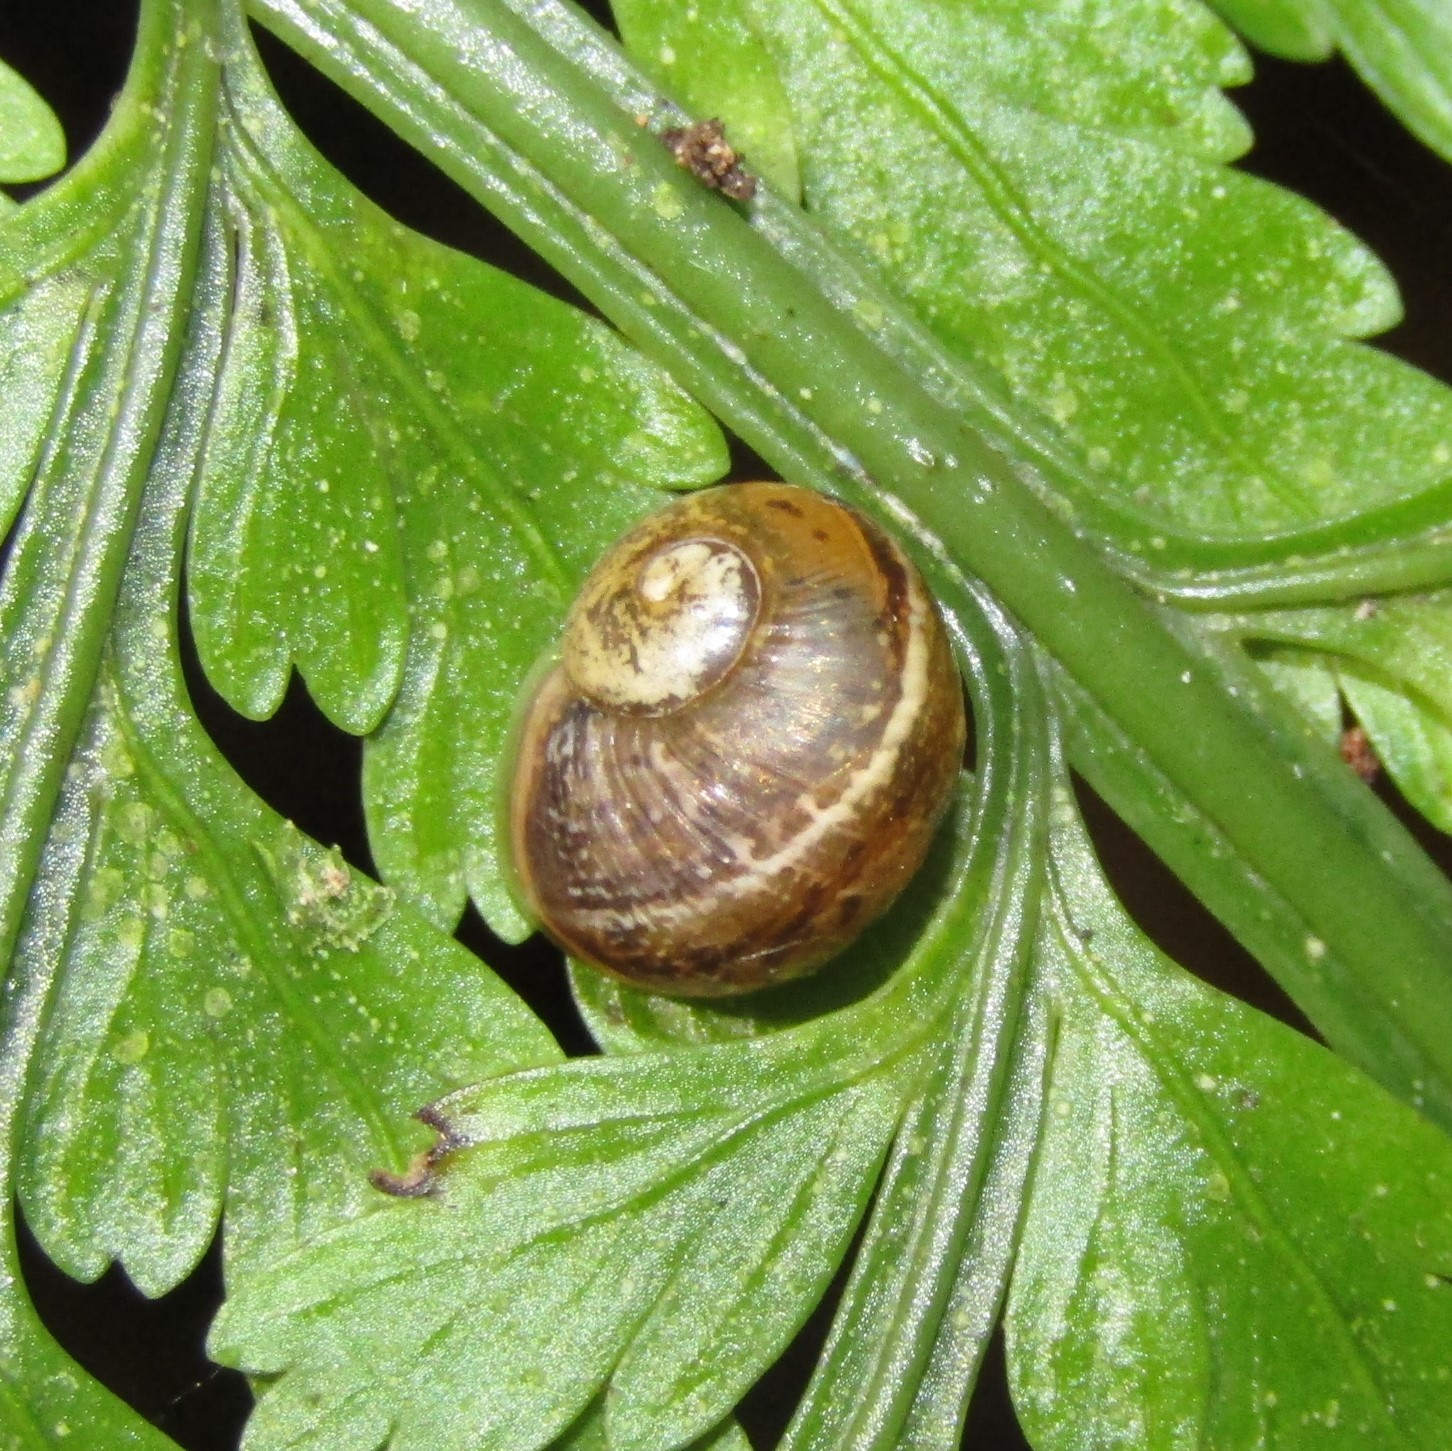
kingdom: Animalia
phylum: Mollusca
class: Gastropoda
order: Stylommatophora
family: Helicidae
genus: Cornu
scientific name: Cornu aspersum
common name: Brown garden snail
